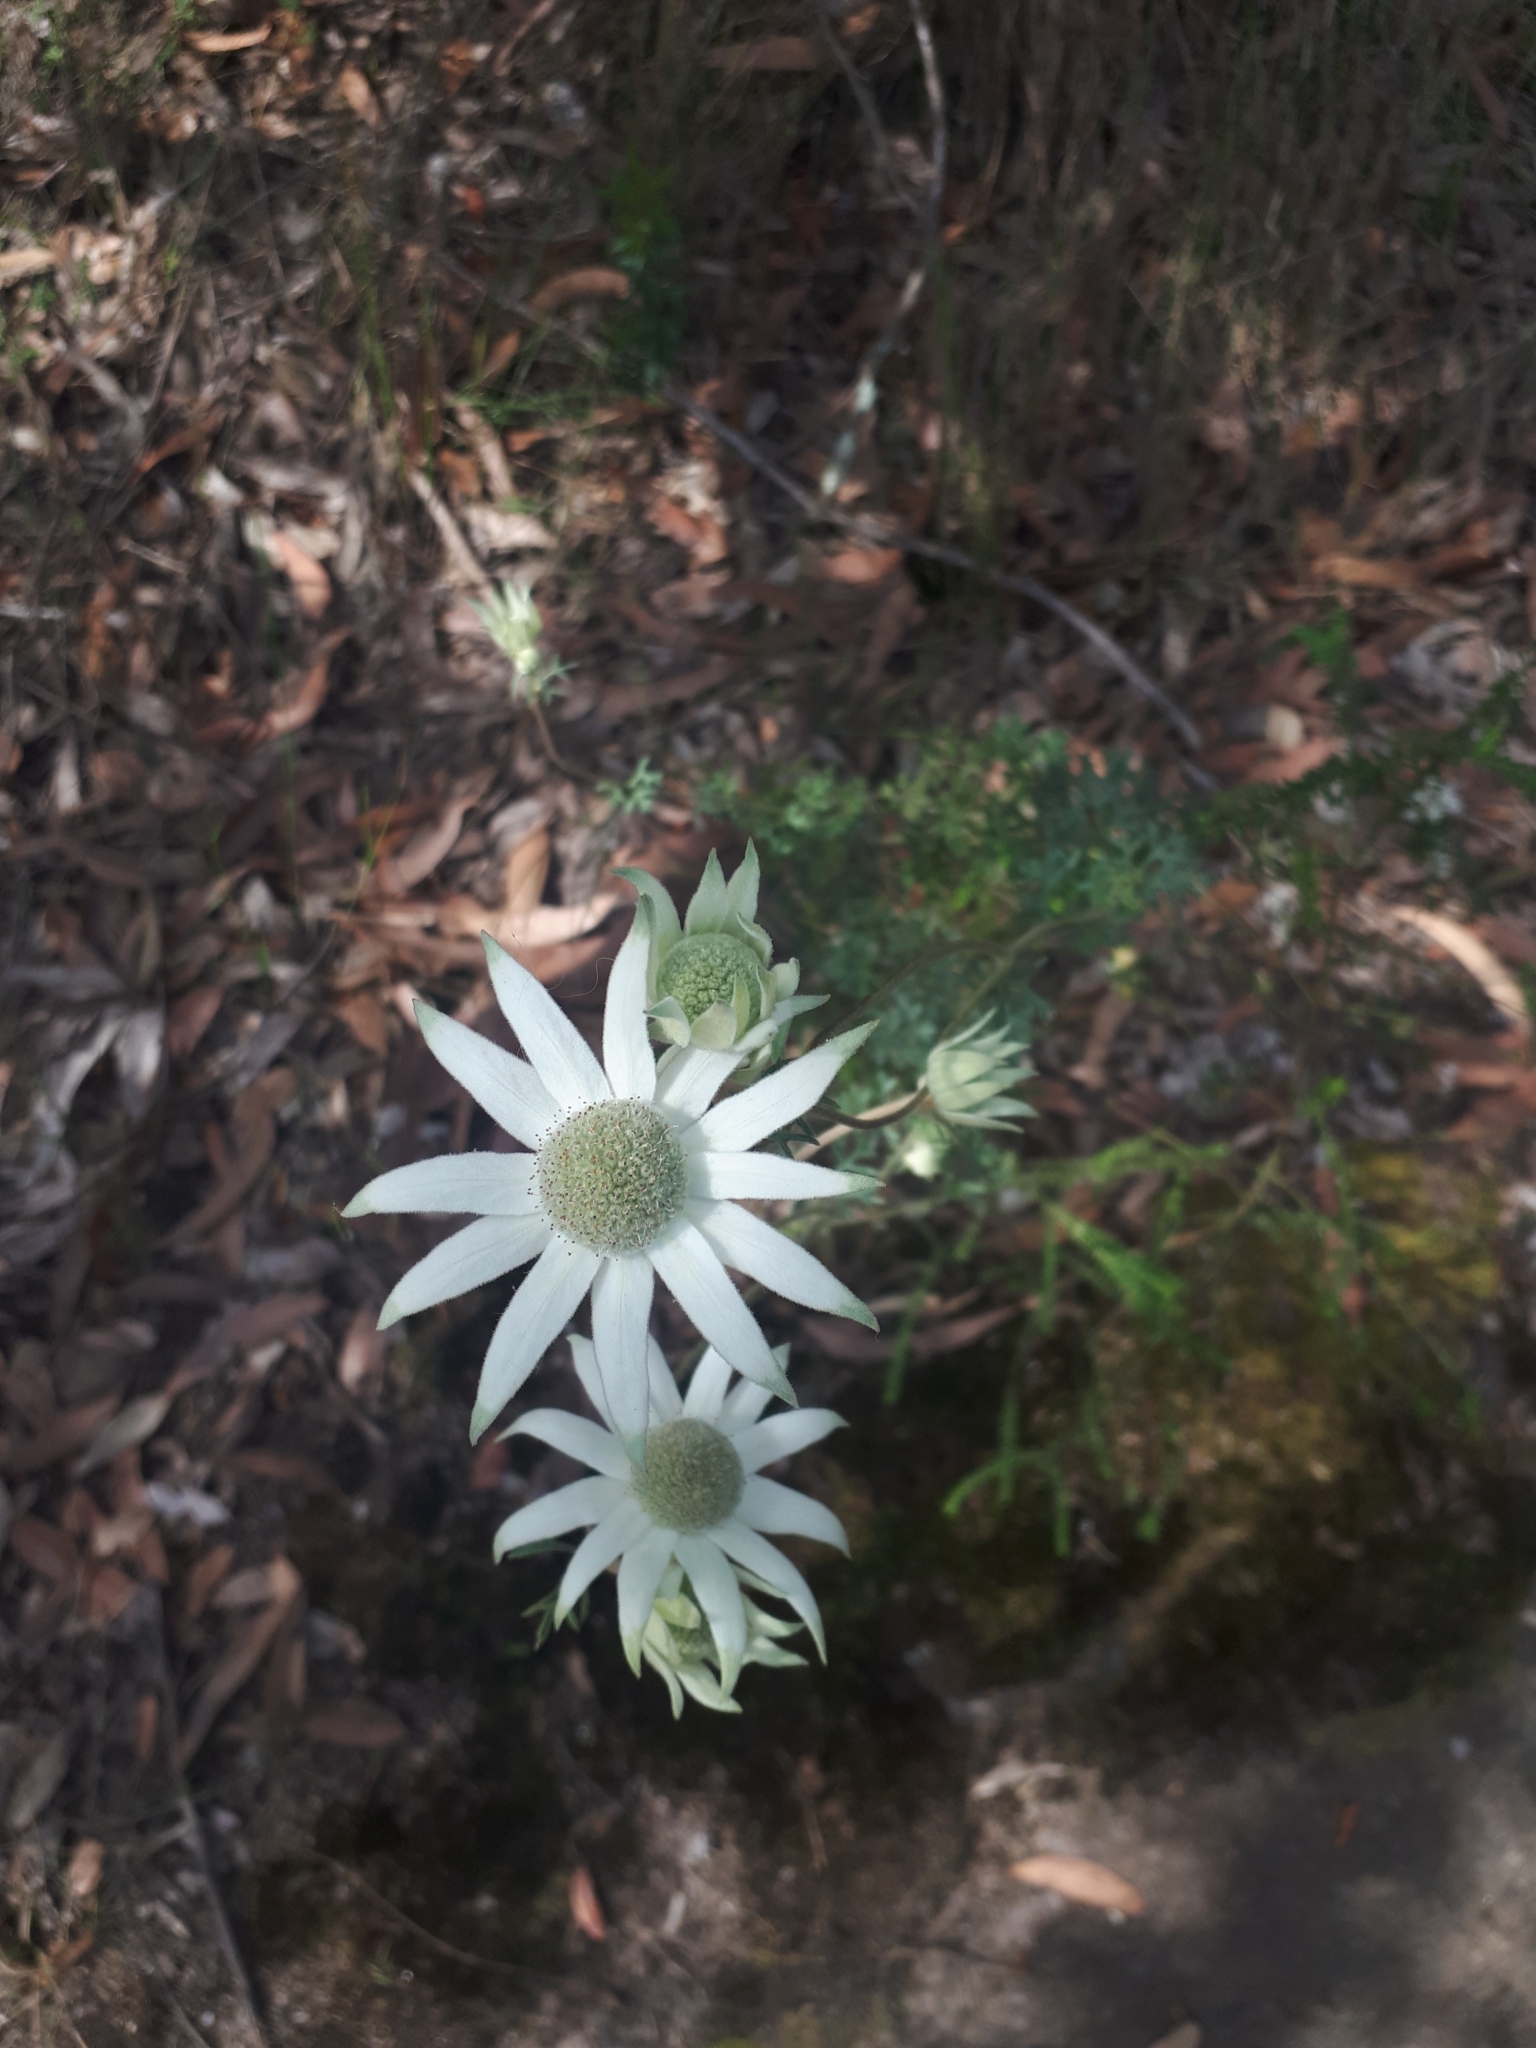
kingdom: Plantae
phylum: Tracheophyta
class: Magnoliopsida
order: Apiales
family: Apiaceae
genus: Actinotus
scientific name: Actinotus helianthi
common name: Flannel-flower
